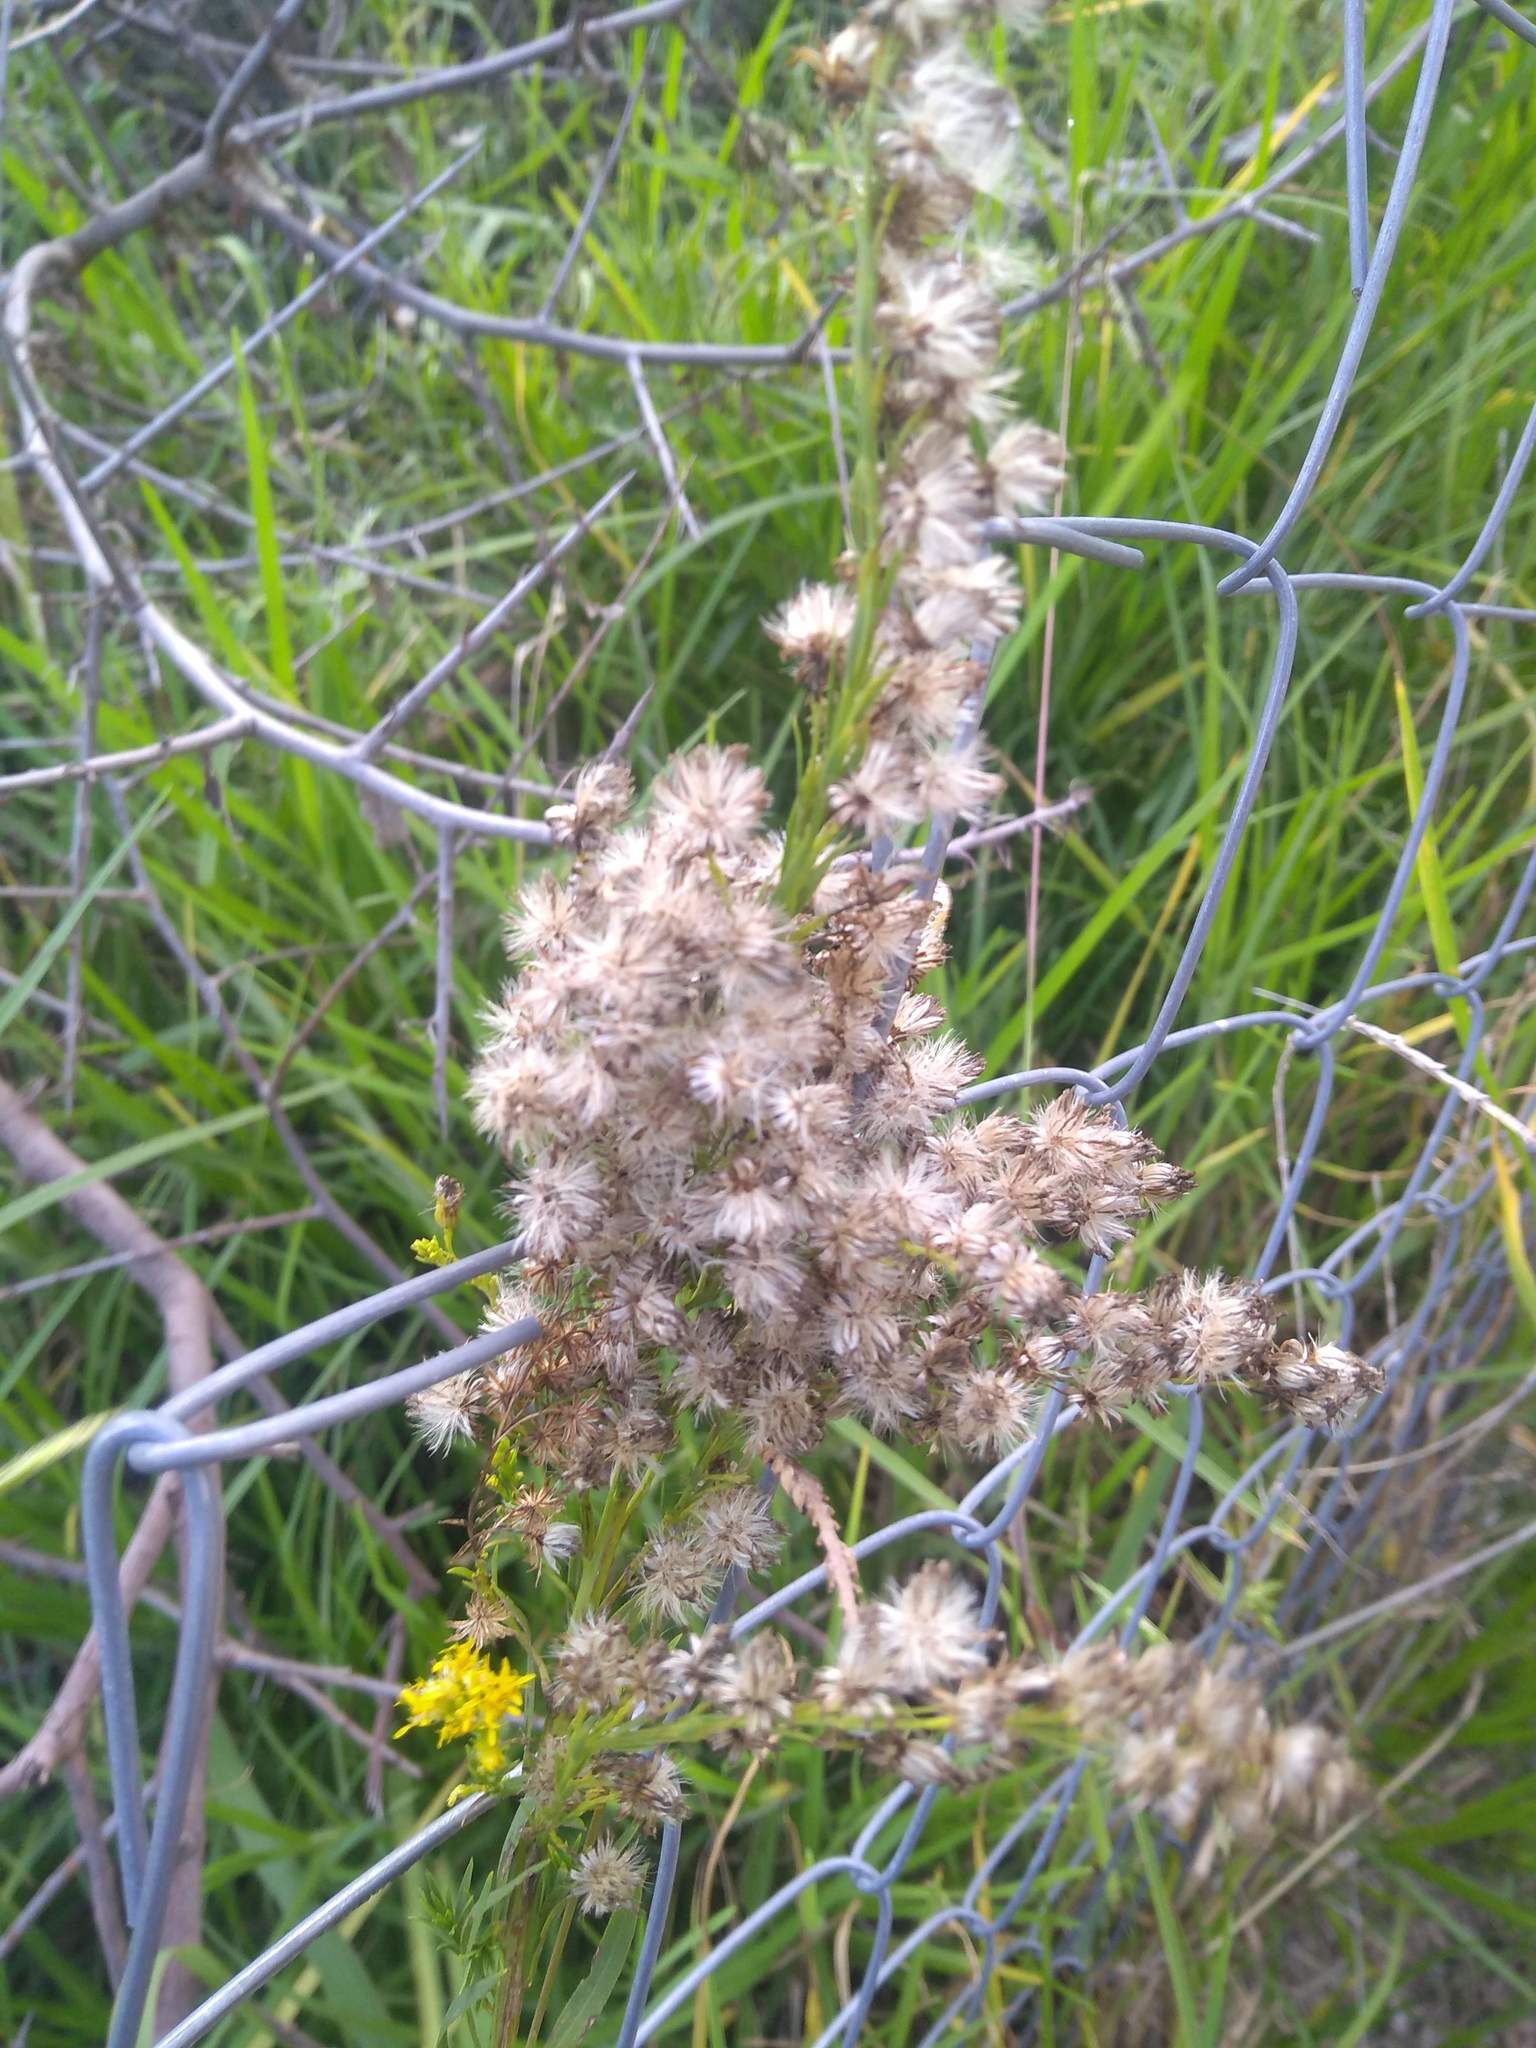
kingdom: Plantae
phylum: Tracheophyta
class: Magnoliopsida
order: Asterales
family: Asteraceae
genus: Solidago
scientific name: Solidago chilensis
